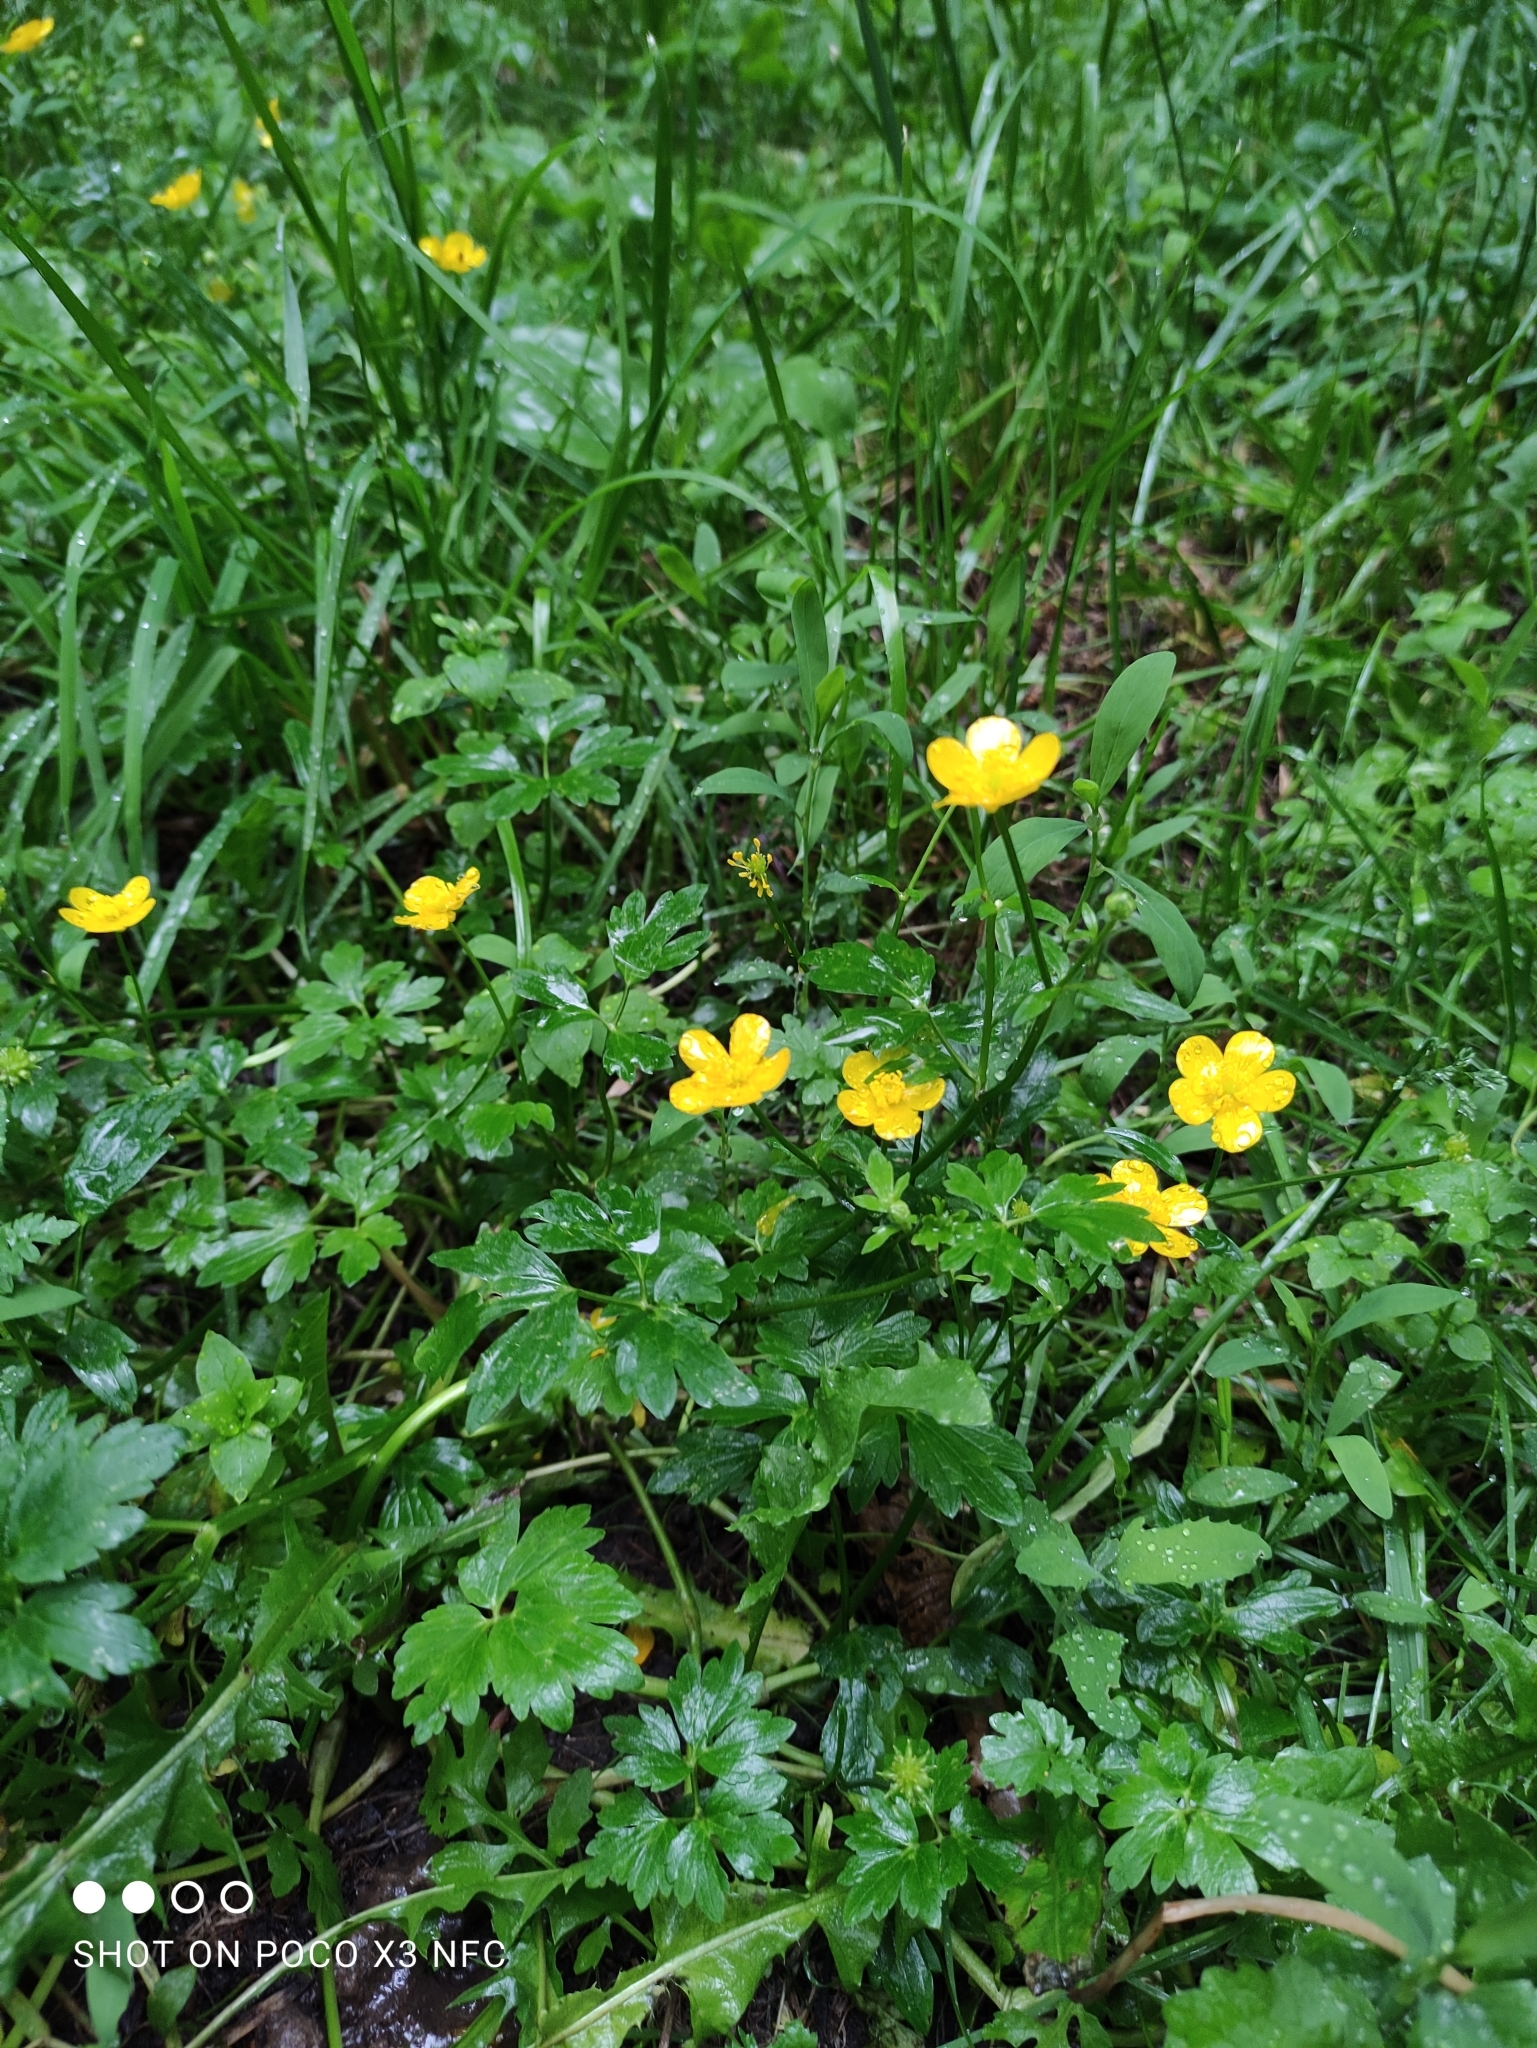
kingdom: Plantae
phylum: Tracheophyta
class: Magnoliopsida
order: Ranunculales
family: Ranunculaceae
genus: Ranunculus
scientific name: Ranunculus repens
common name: Creeping buttercup
